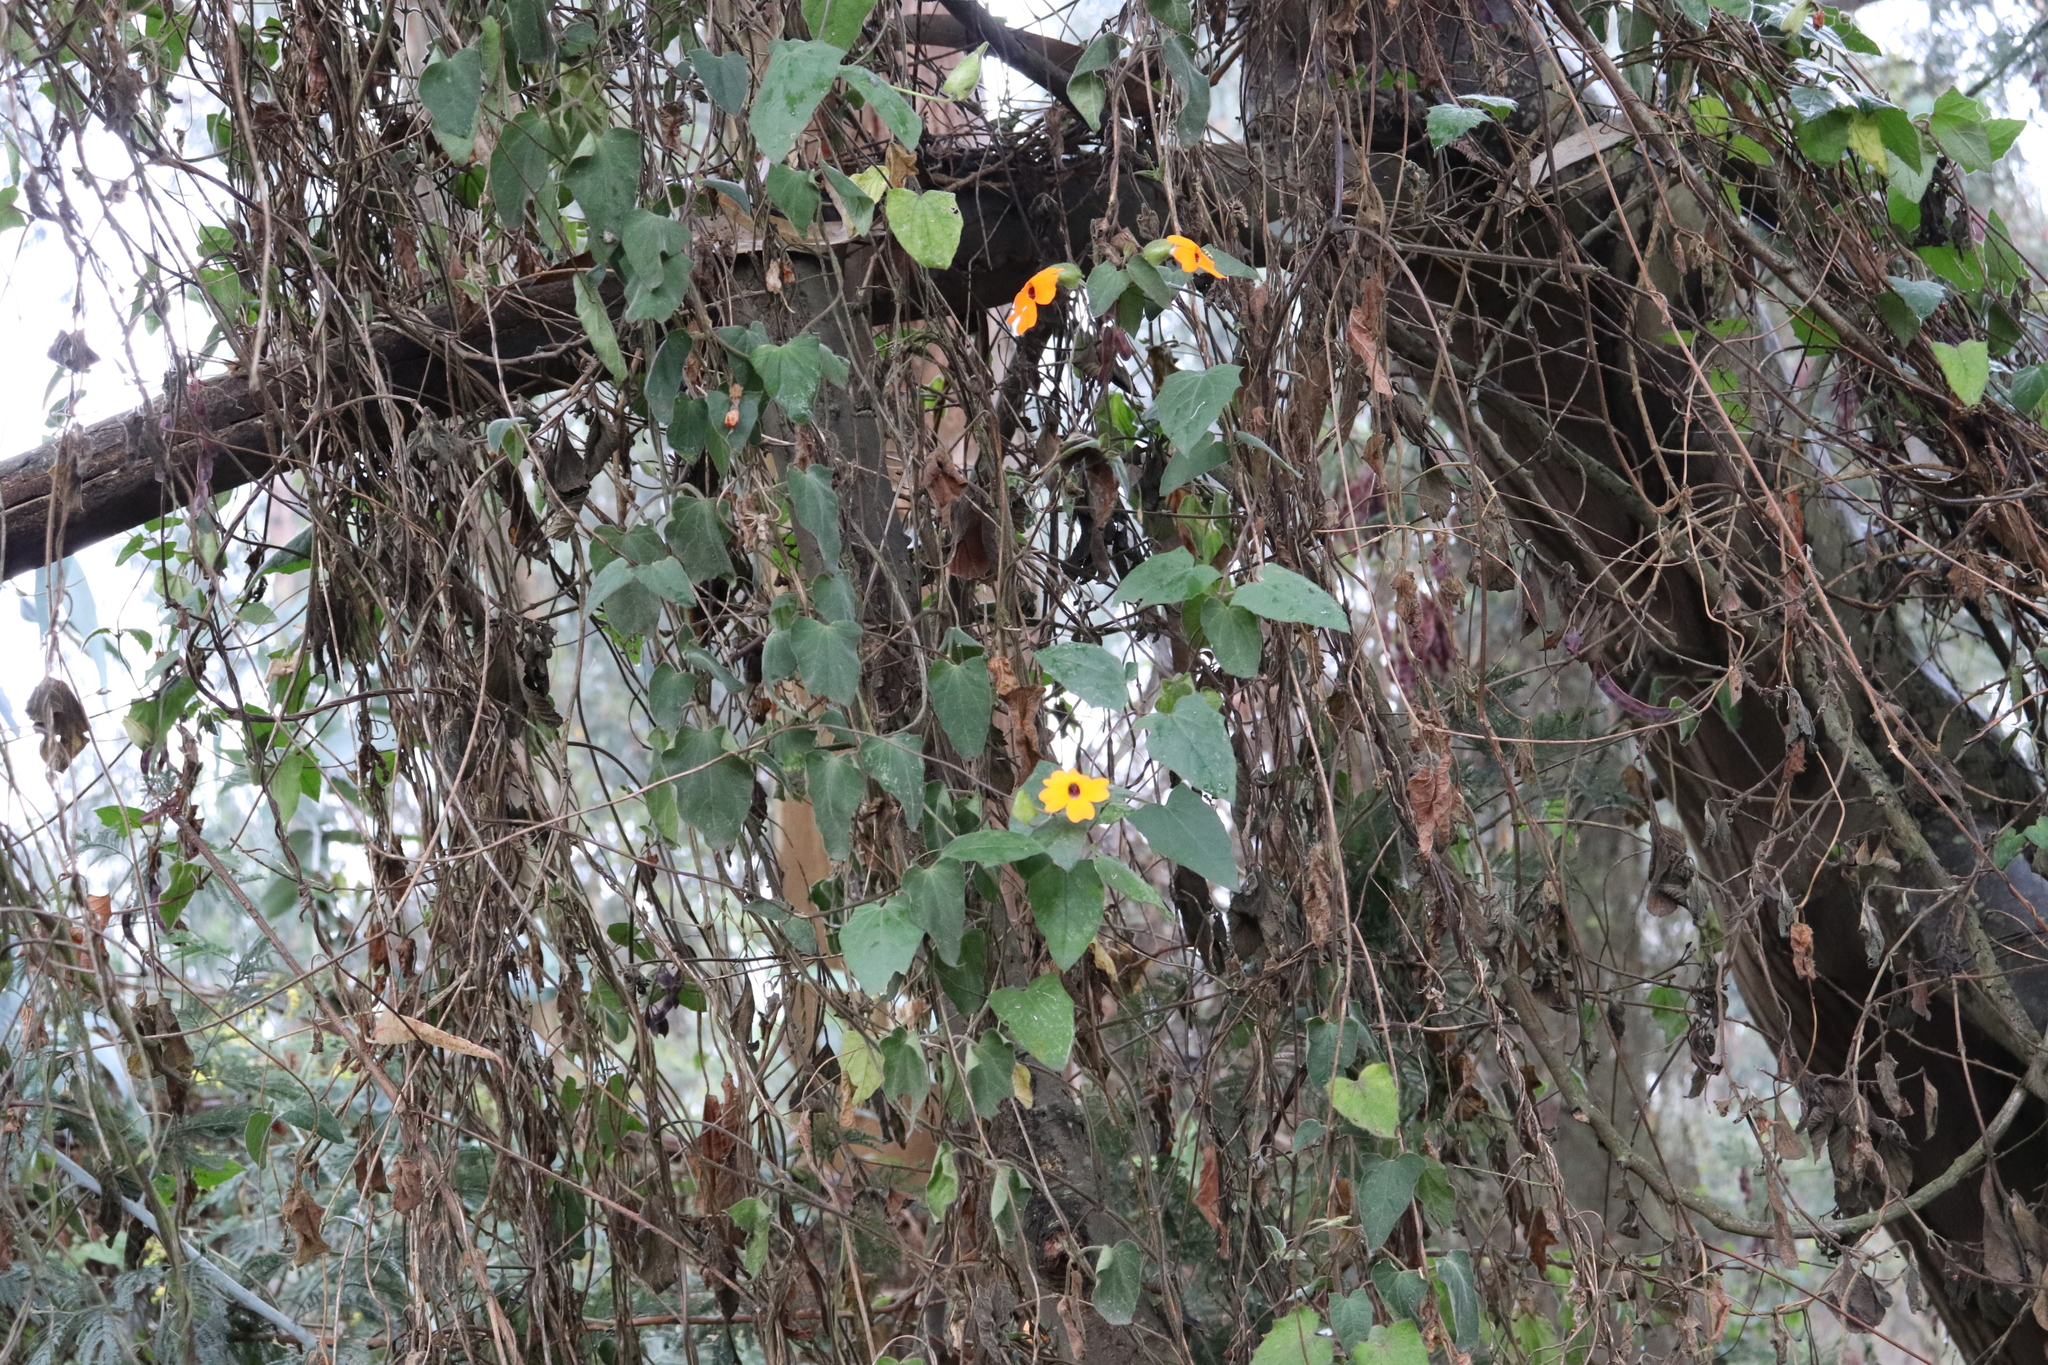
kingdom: Plantae
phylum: Tracheophyta
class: Magnoliopsida
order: Lamiales
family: Acanthaceae
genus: Thunbergia
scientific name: Thunbergia alata
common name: Blackeyed susan vine
